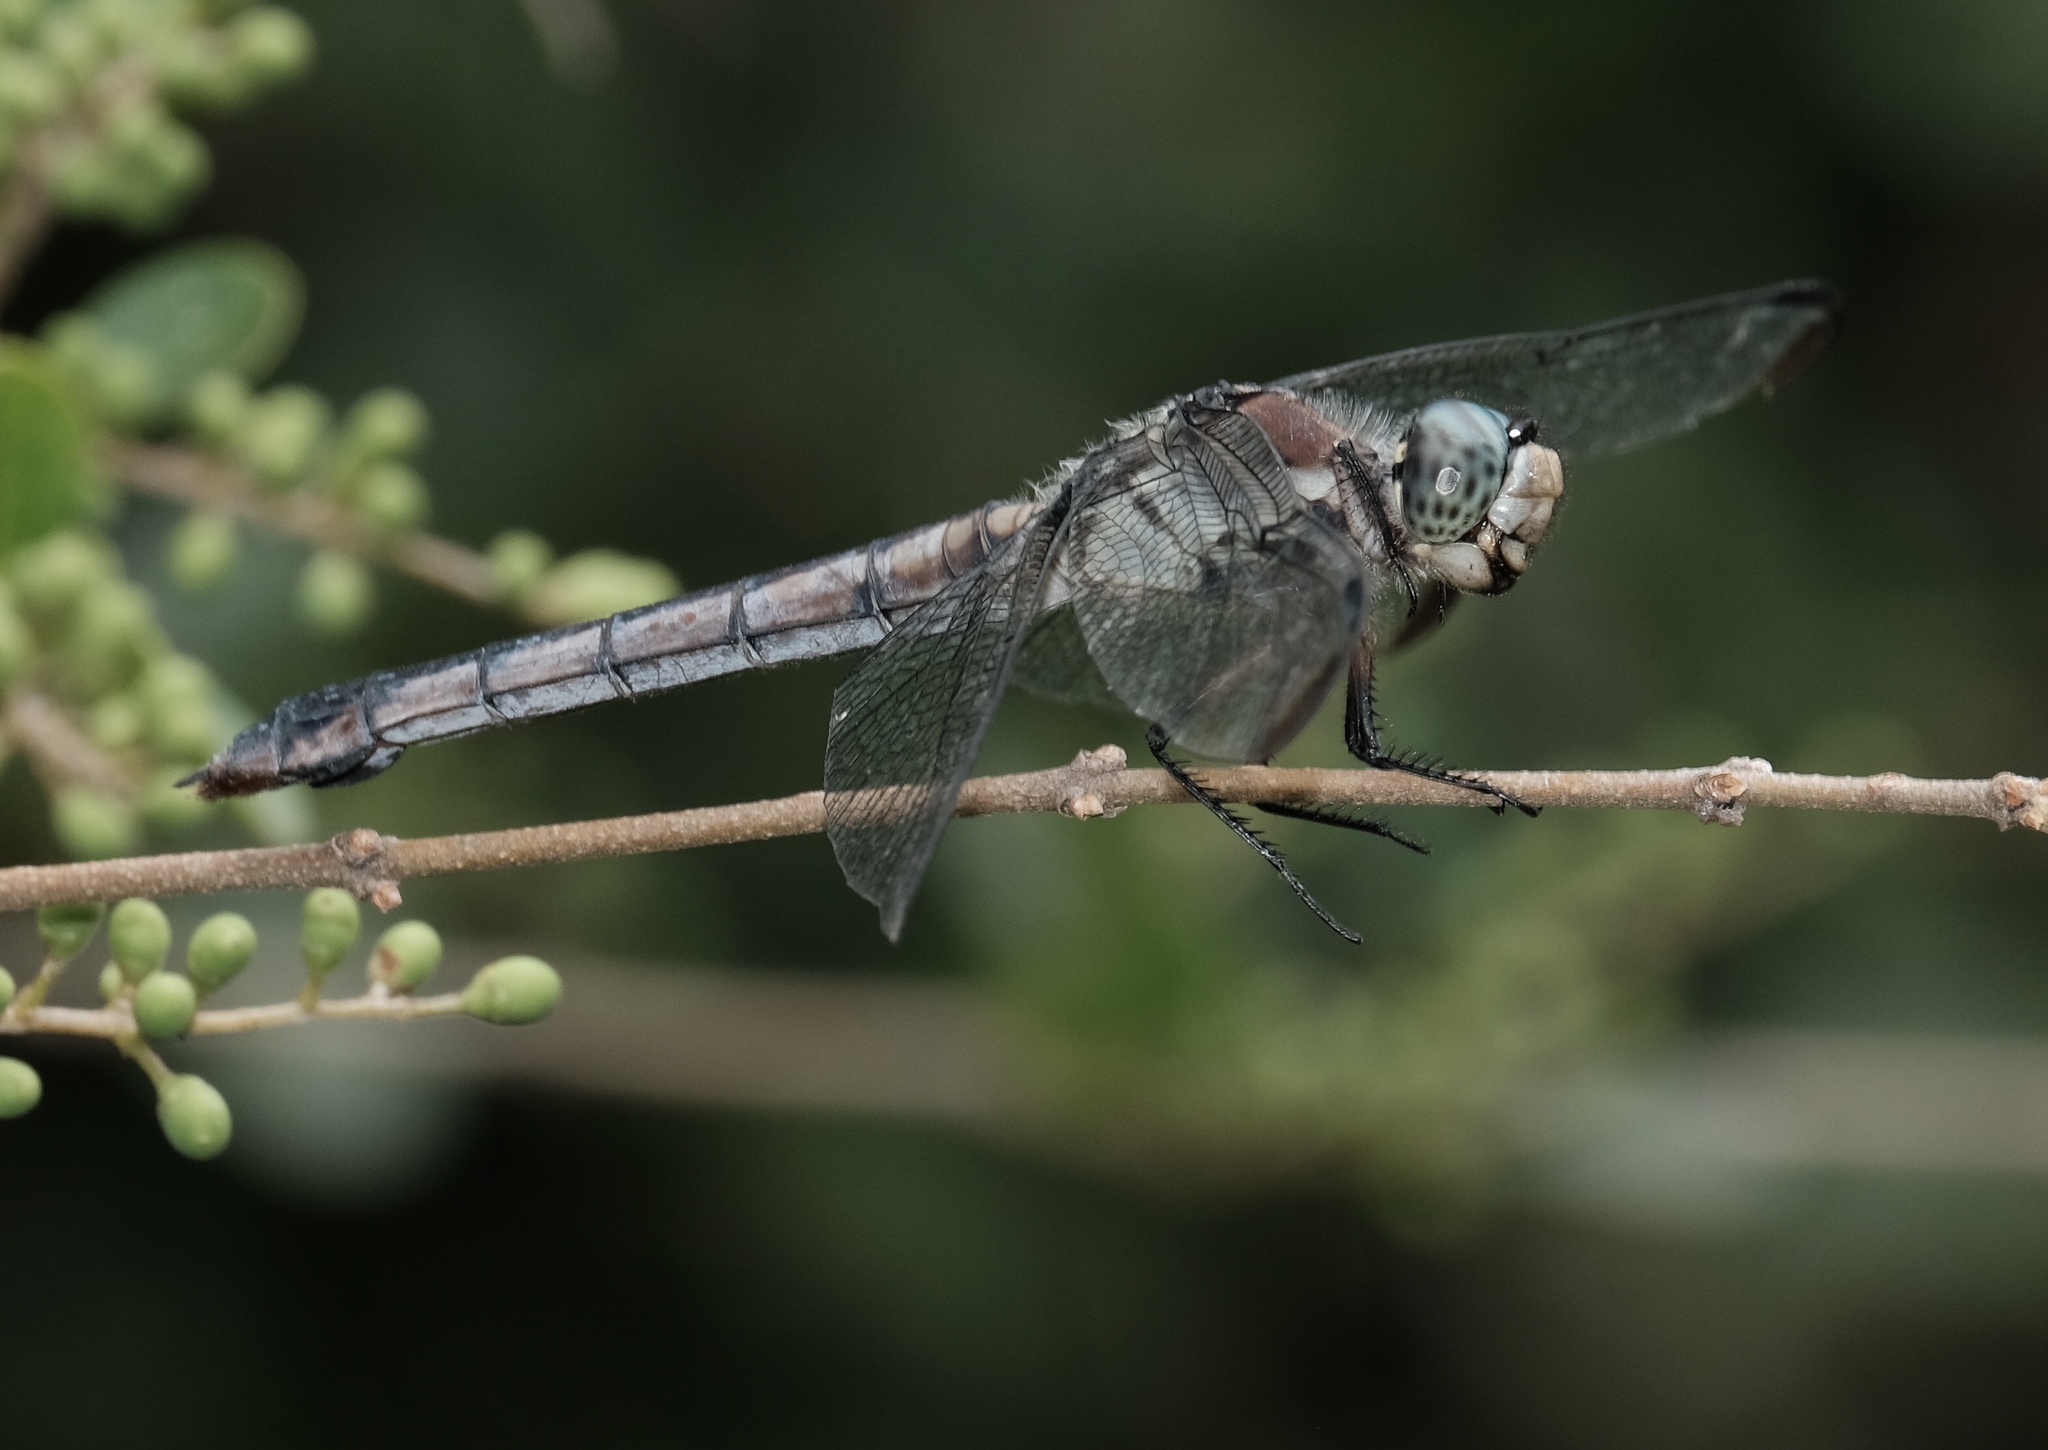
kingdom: Animalia
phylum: Arthropoda
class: Insecta
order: Odonata
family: Libellulidae
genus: Libellula
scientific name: Libellula vibrans
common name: Great blue skimmer
